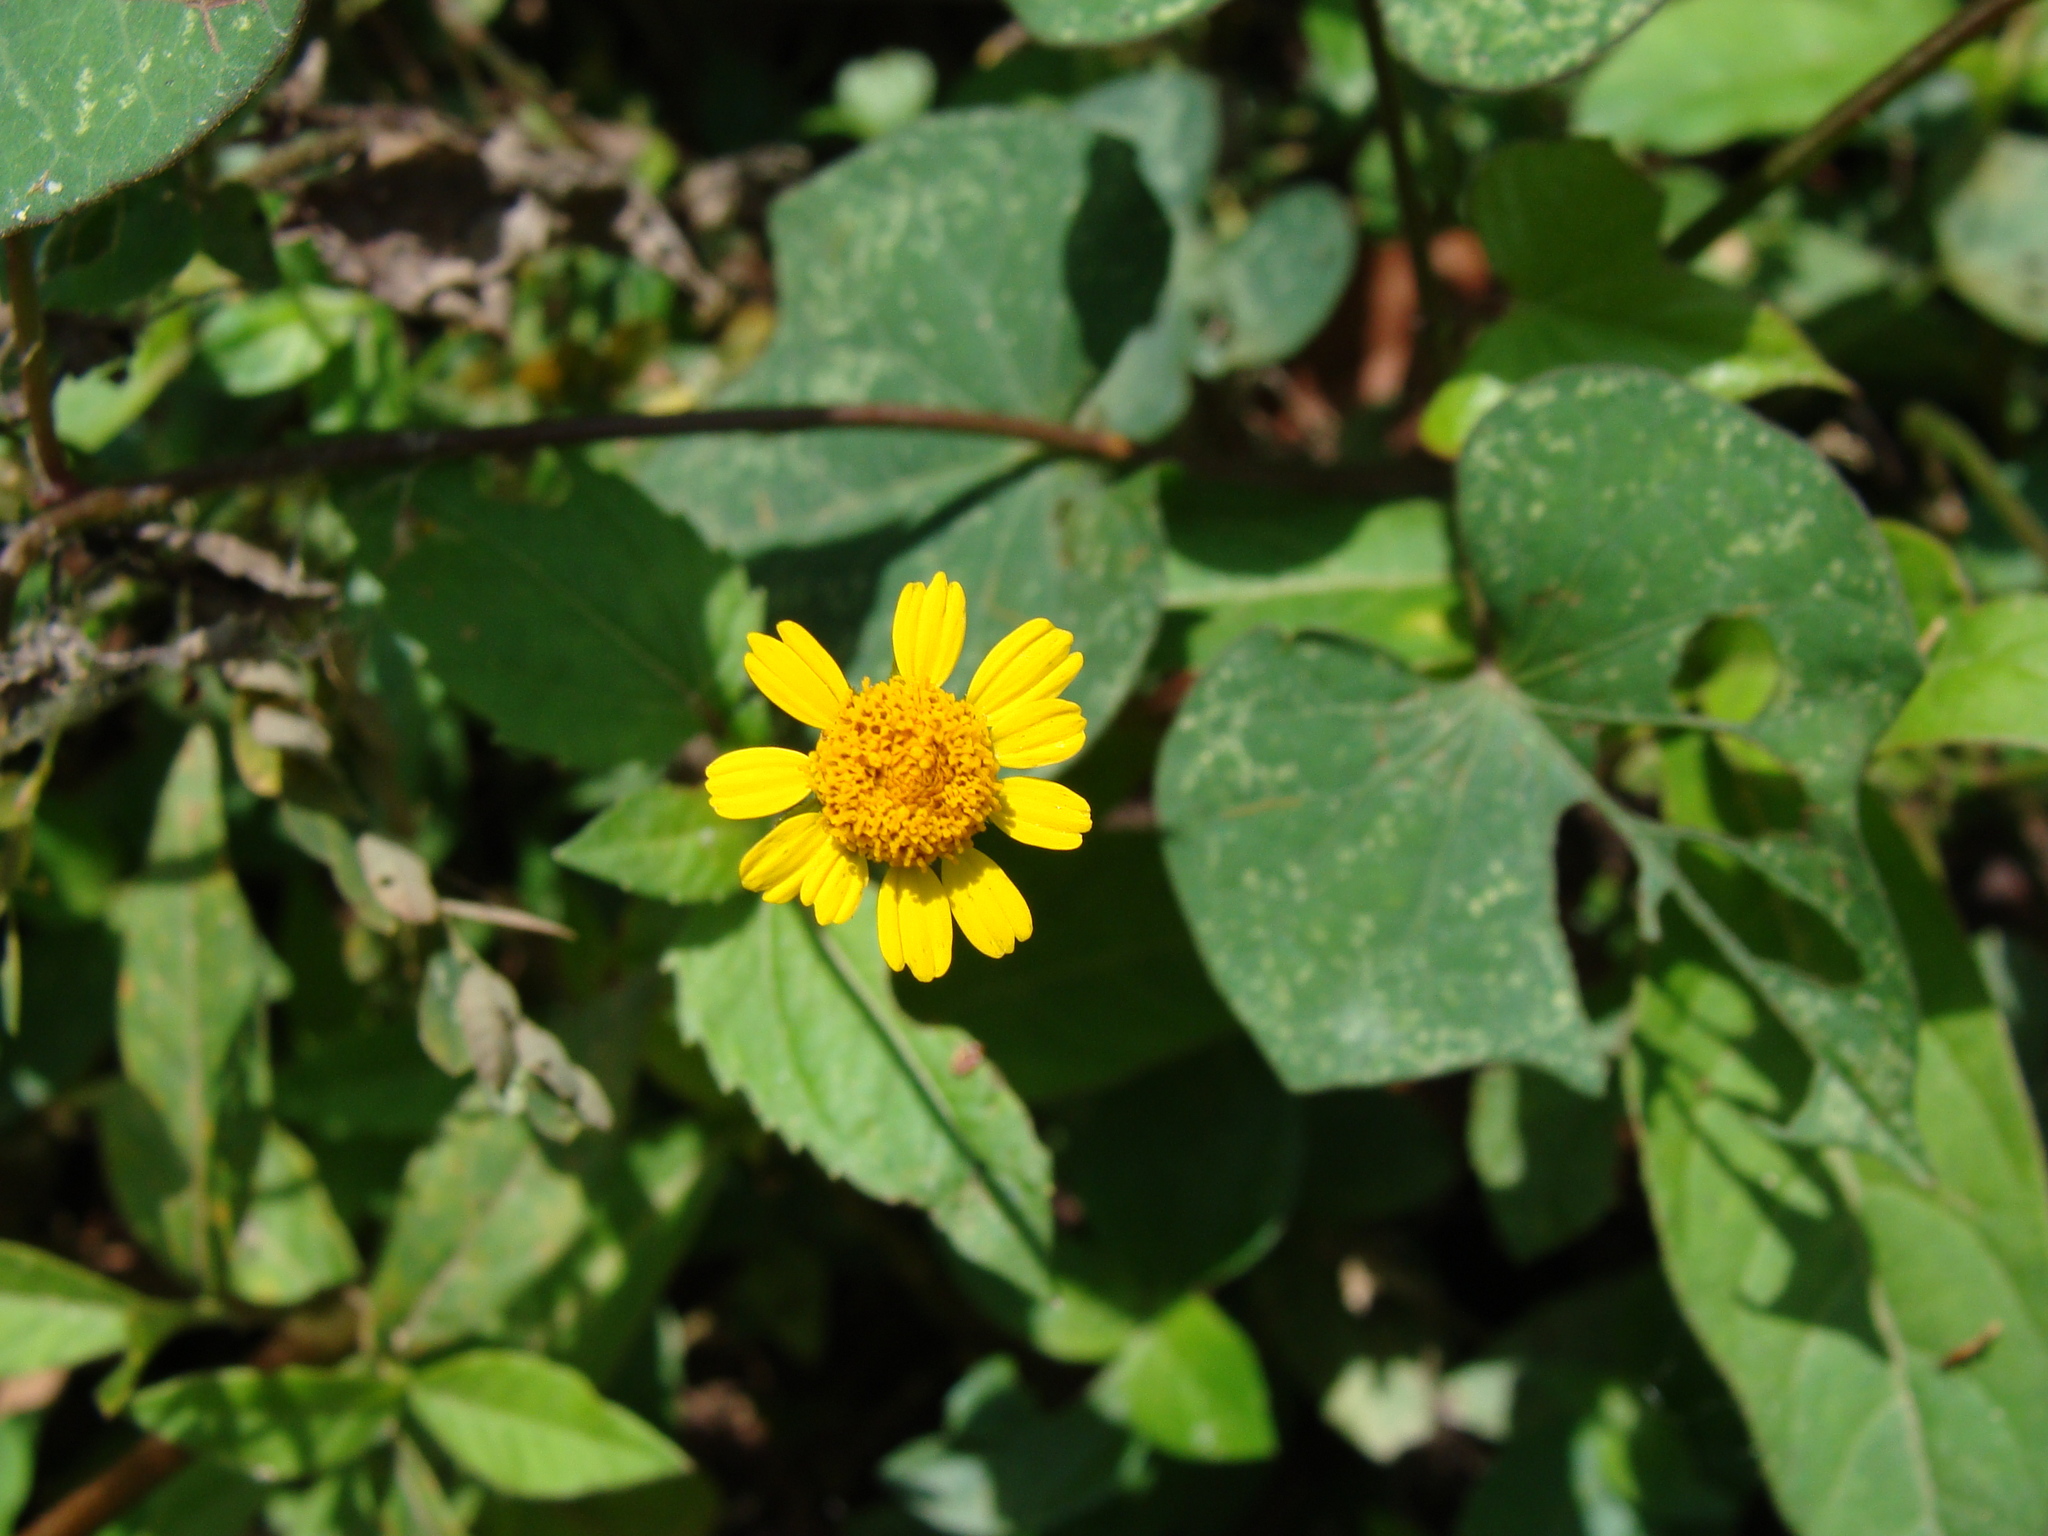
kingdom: Plantae
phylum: Tracheophyta
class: Magnoliopsida
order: Asterales
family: Asteraceae
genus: Acmella
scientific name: Acmella repens
